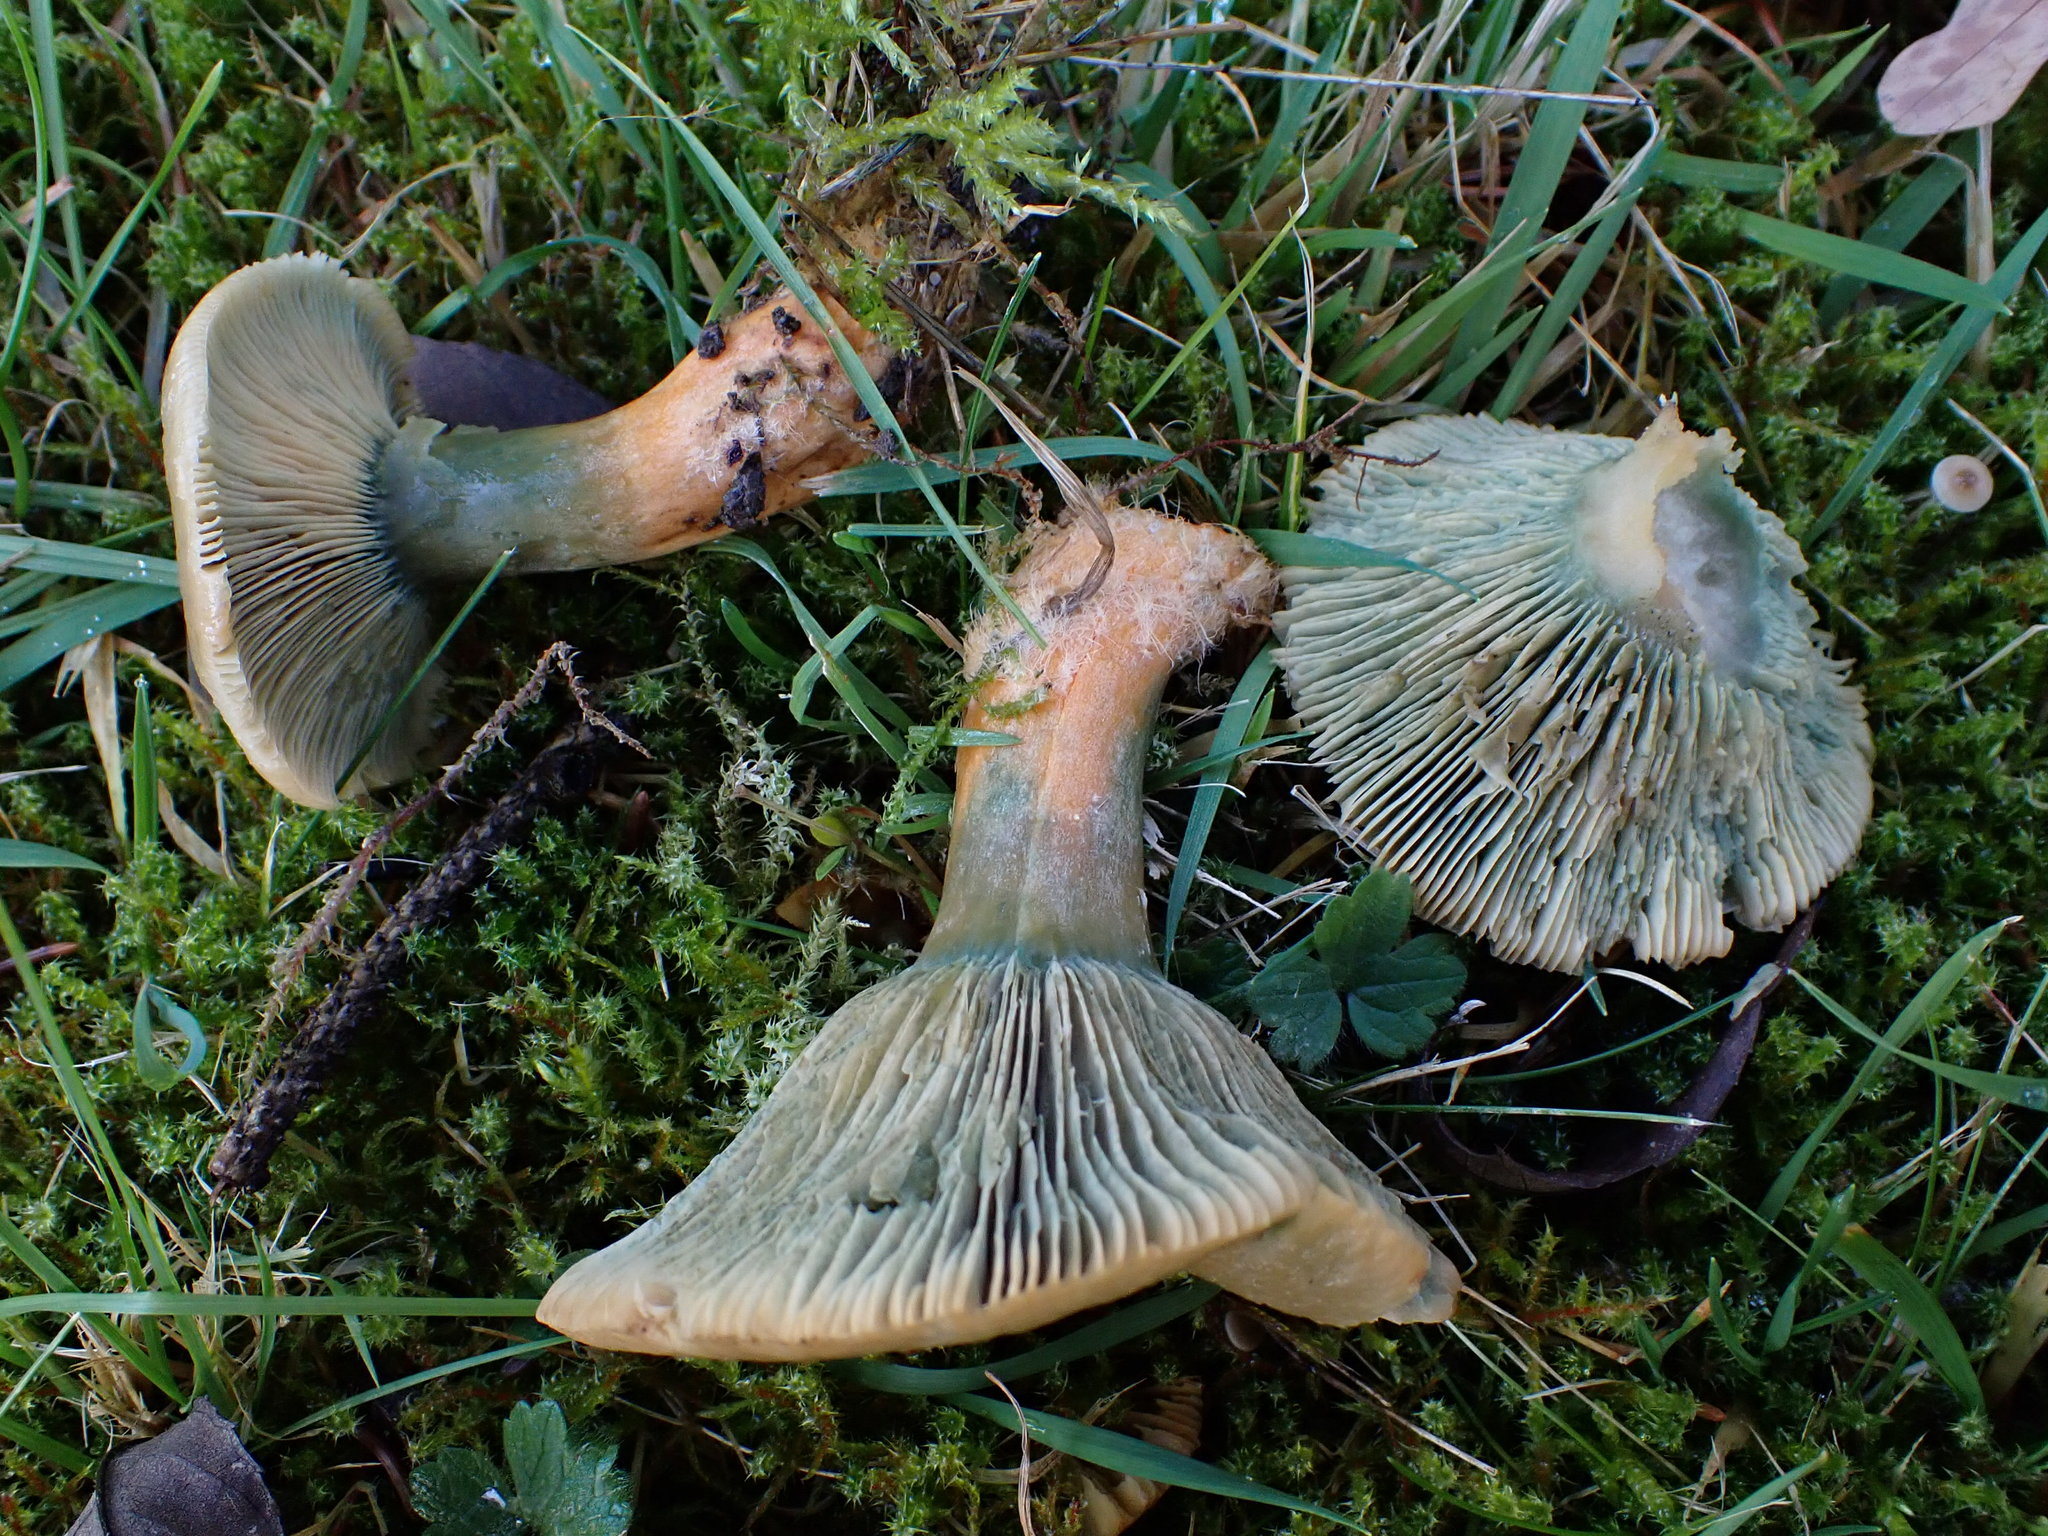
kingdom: Fungi
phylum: Basidiomycota
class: Agaricomycetes
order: Russulales
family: Russulaceae
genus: Lactarius
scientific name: Lactarius deterrimus
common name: False saffron milkcap
